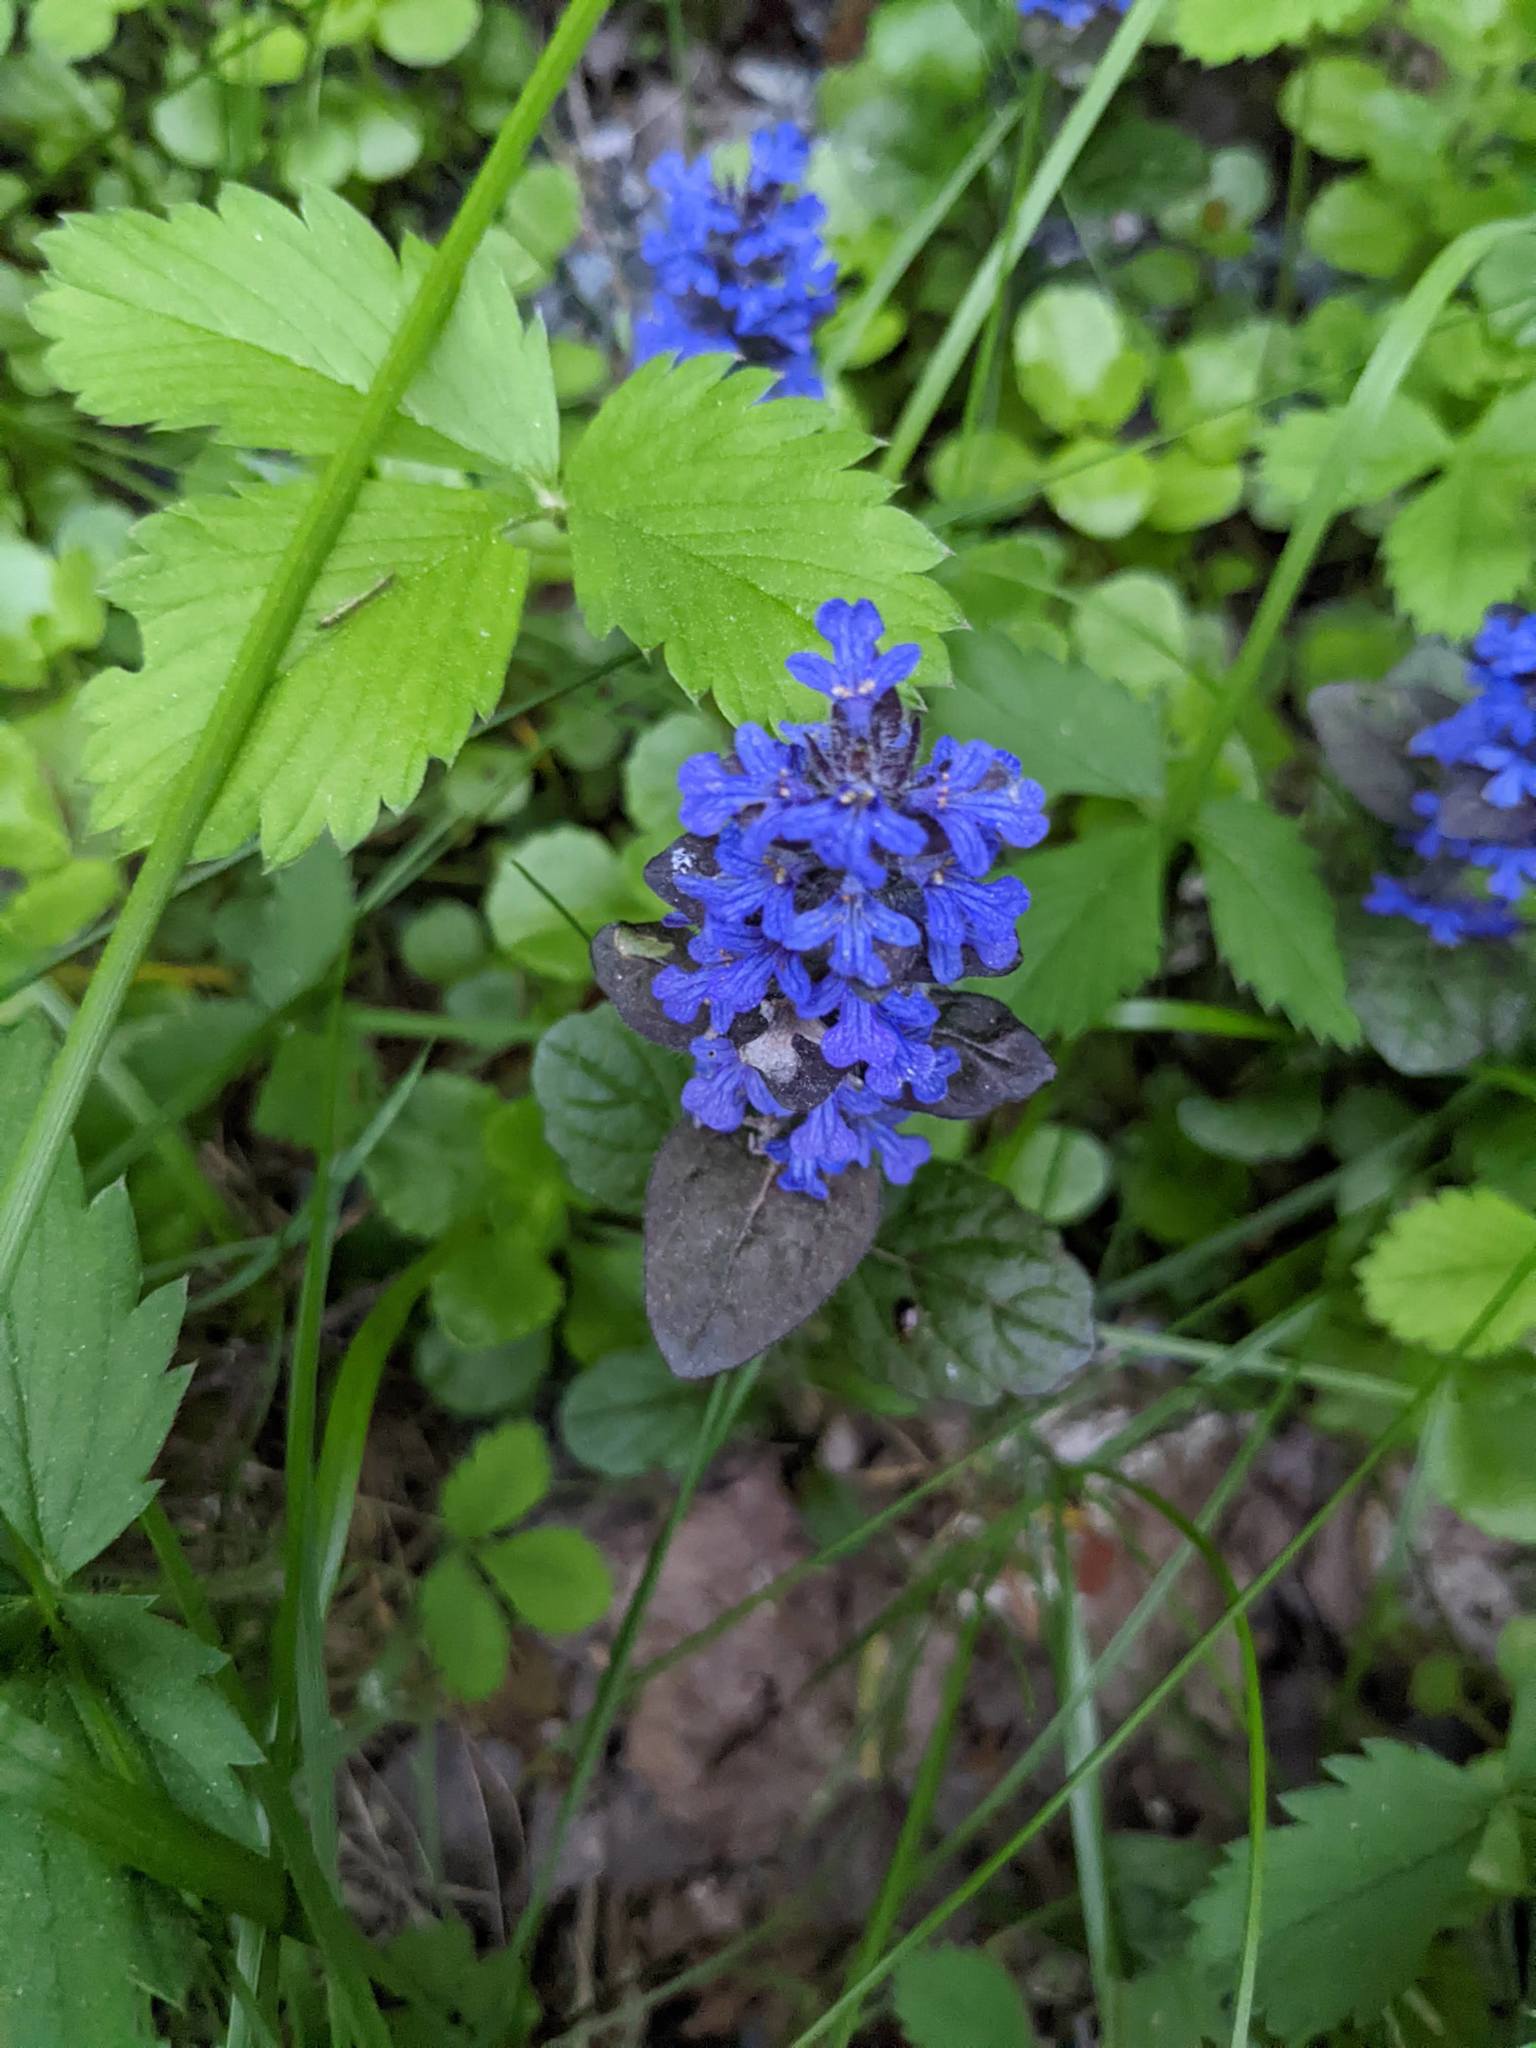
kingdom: Plantae
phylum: Tracheophyta
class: Magnoliopsida
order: Lamiales
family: Lamiaceae
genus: Ajuga
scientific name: Ajuga reptans
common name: Bugle
